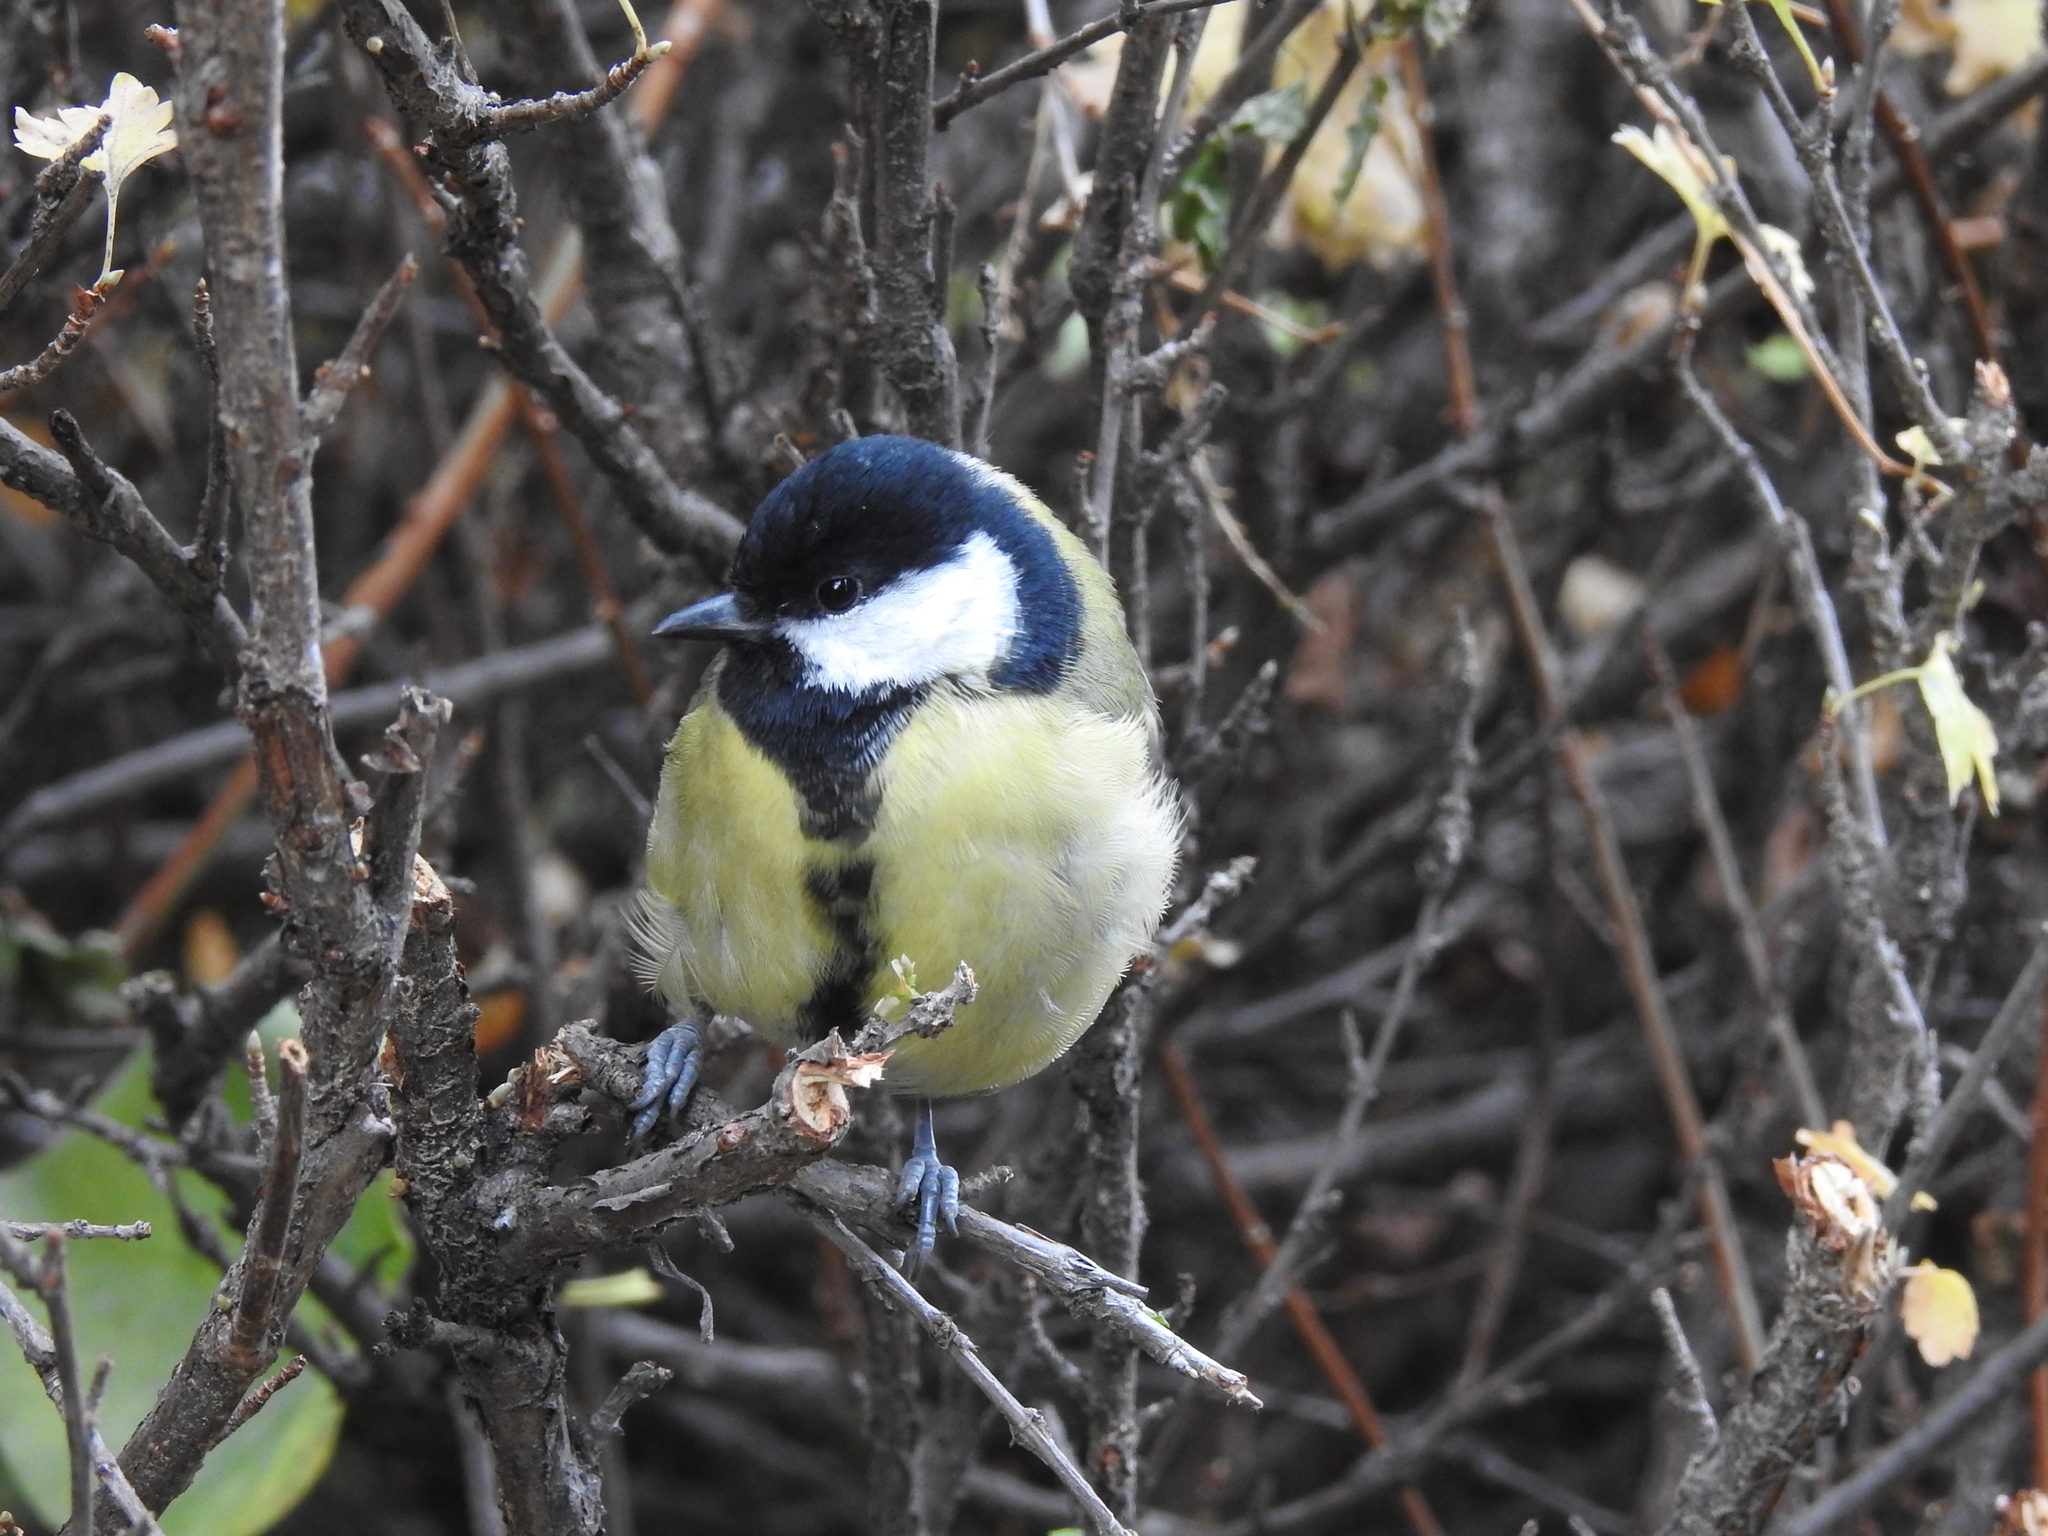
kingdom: Animalia
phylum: Chordata
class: Aves
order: Passeriformes
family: Paridae
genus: Parus
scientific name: Parus major
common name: Great tit
